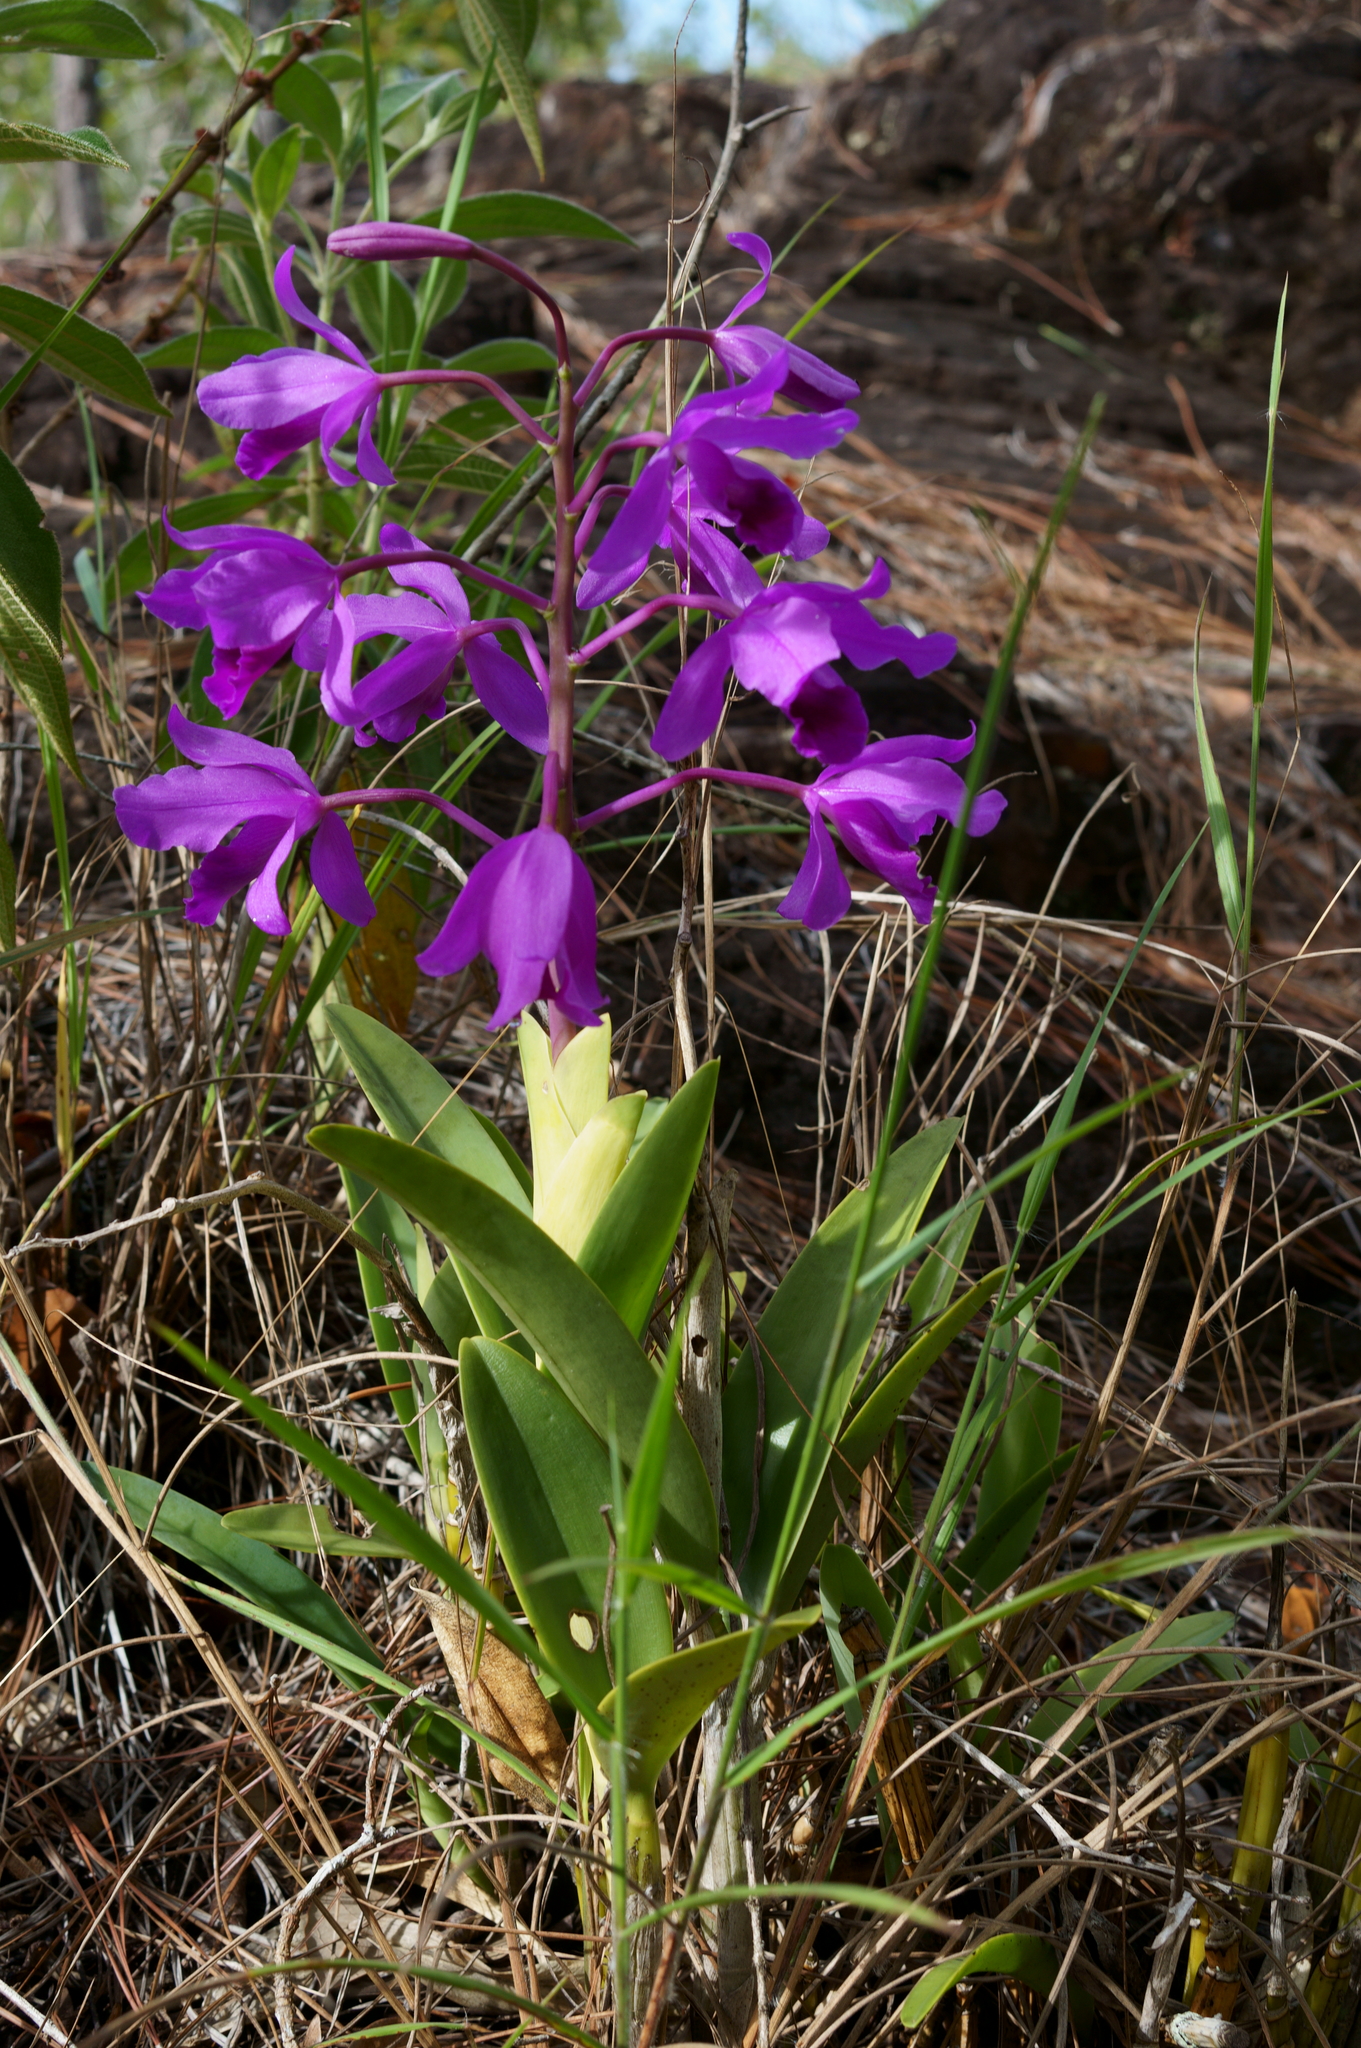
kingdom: Plantae
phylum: Tracheophyta
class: Liliopsida
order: Asparagales
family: Orchidaceae
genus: Guarianthe
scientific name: Guarianthe bowringiana
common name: Bowring's cattleya
